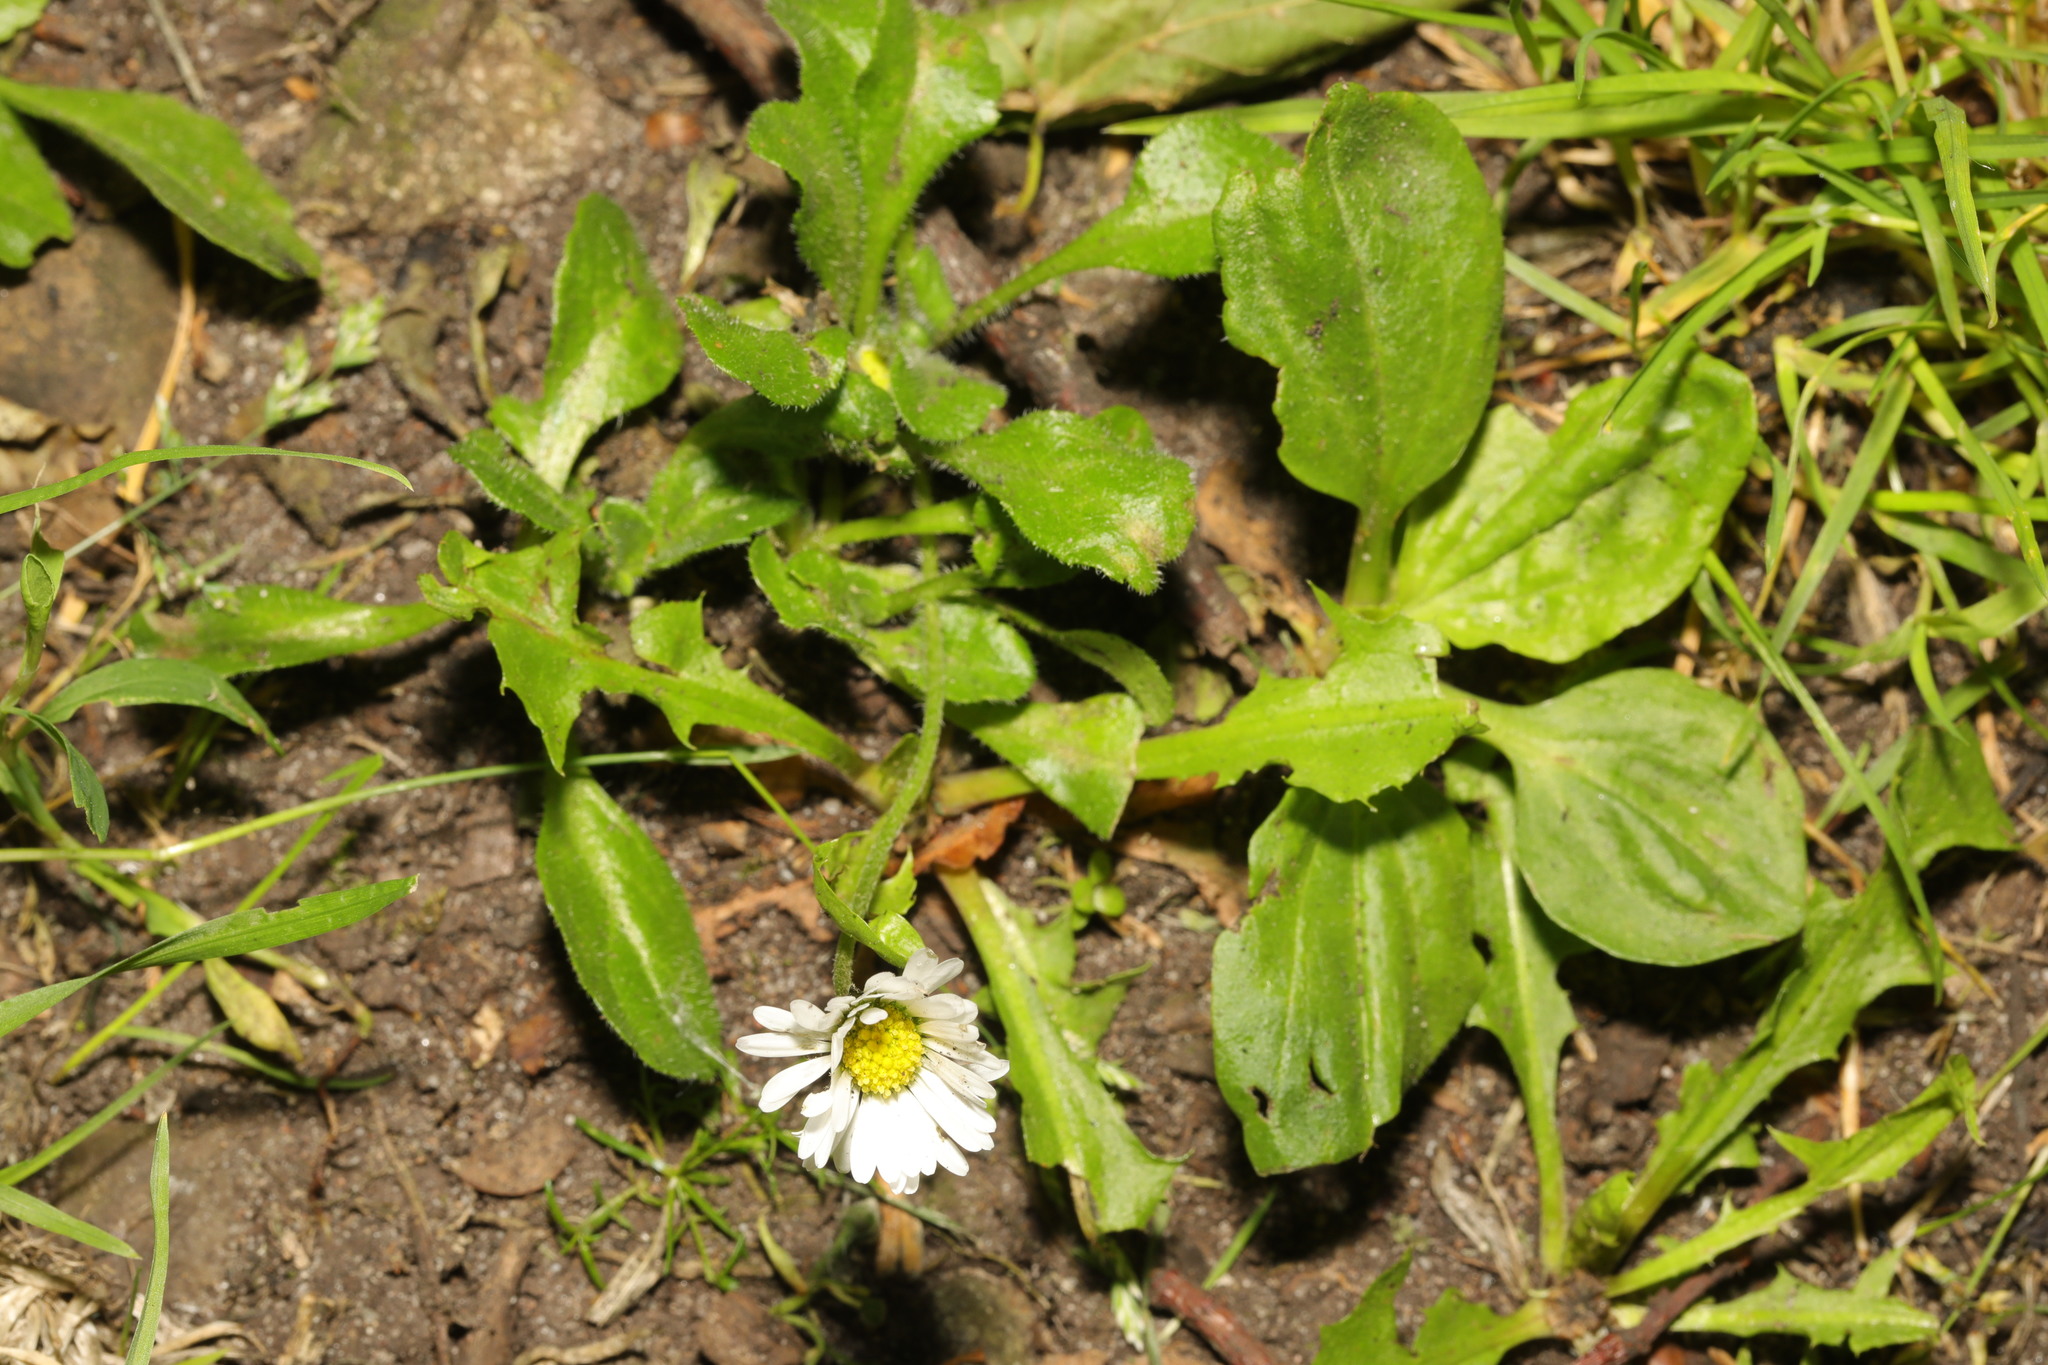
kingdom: Plantae
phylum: Tracheophyta
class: Magnoliopsida
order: Asterales
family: Asteraceae
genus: Bellis
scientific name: Bellis perennis
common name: Lawndaisy
